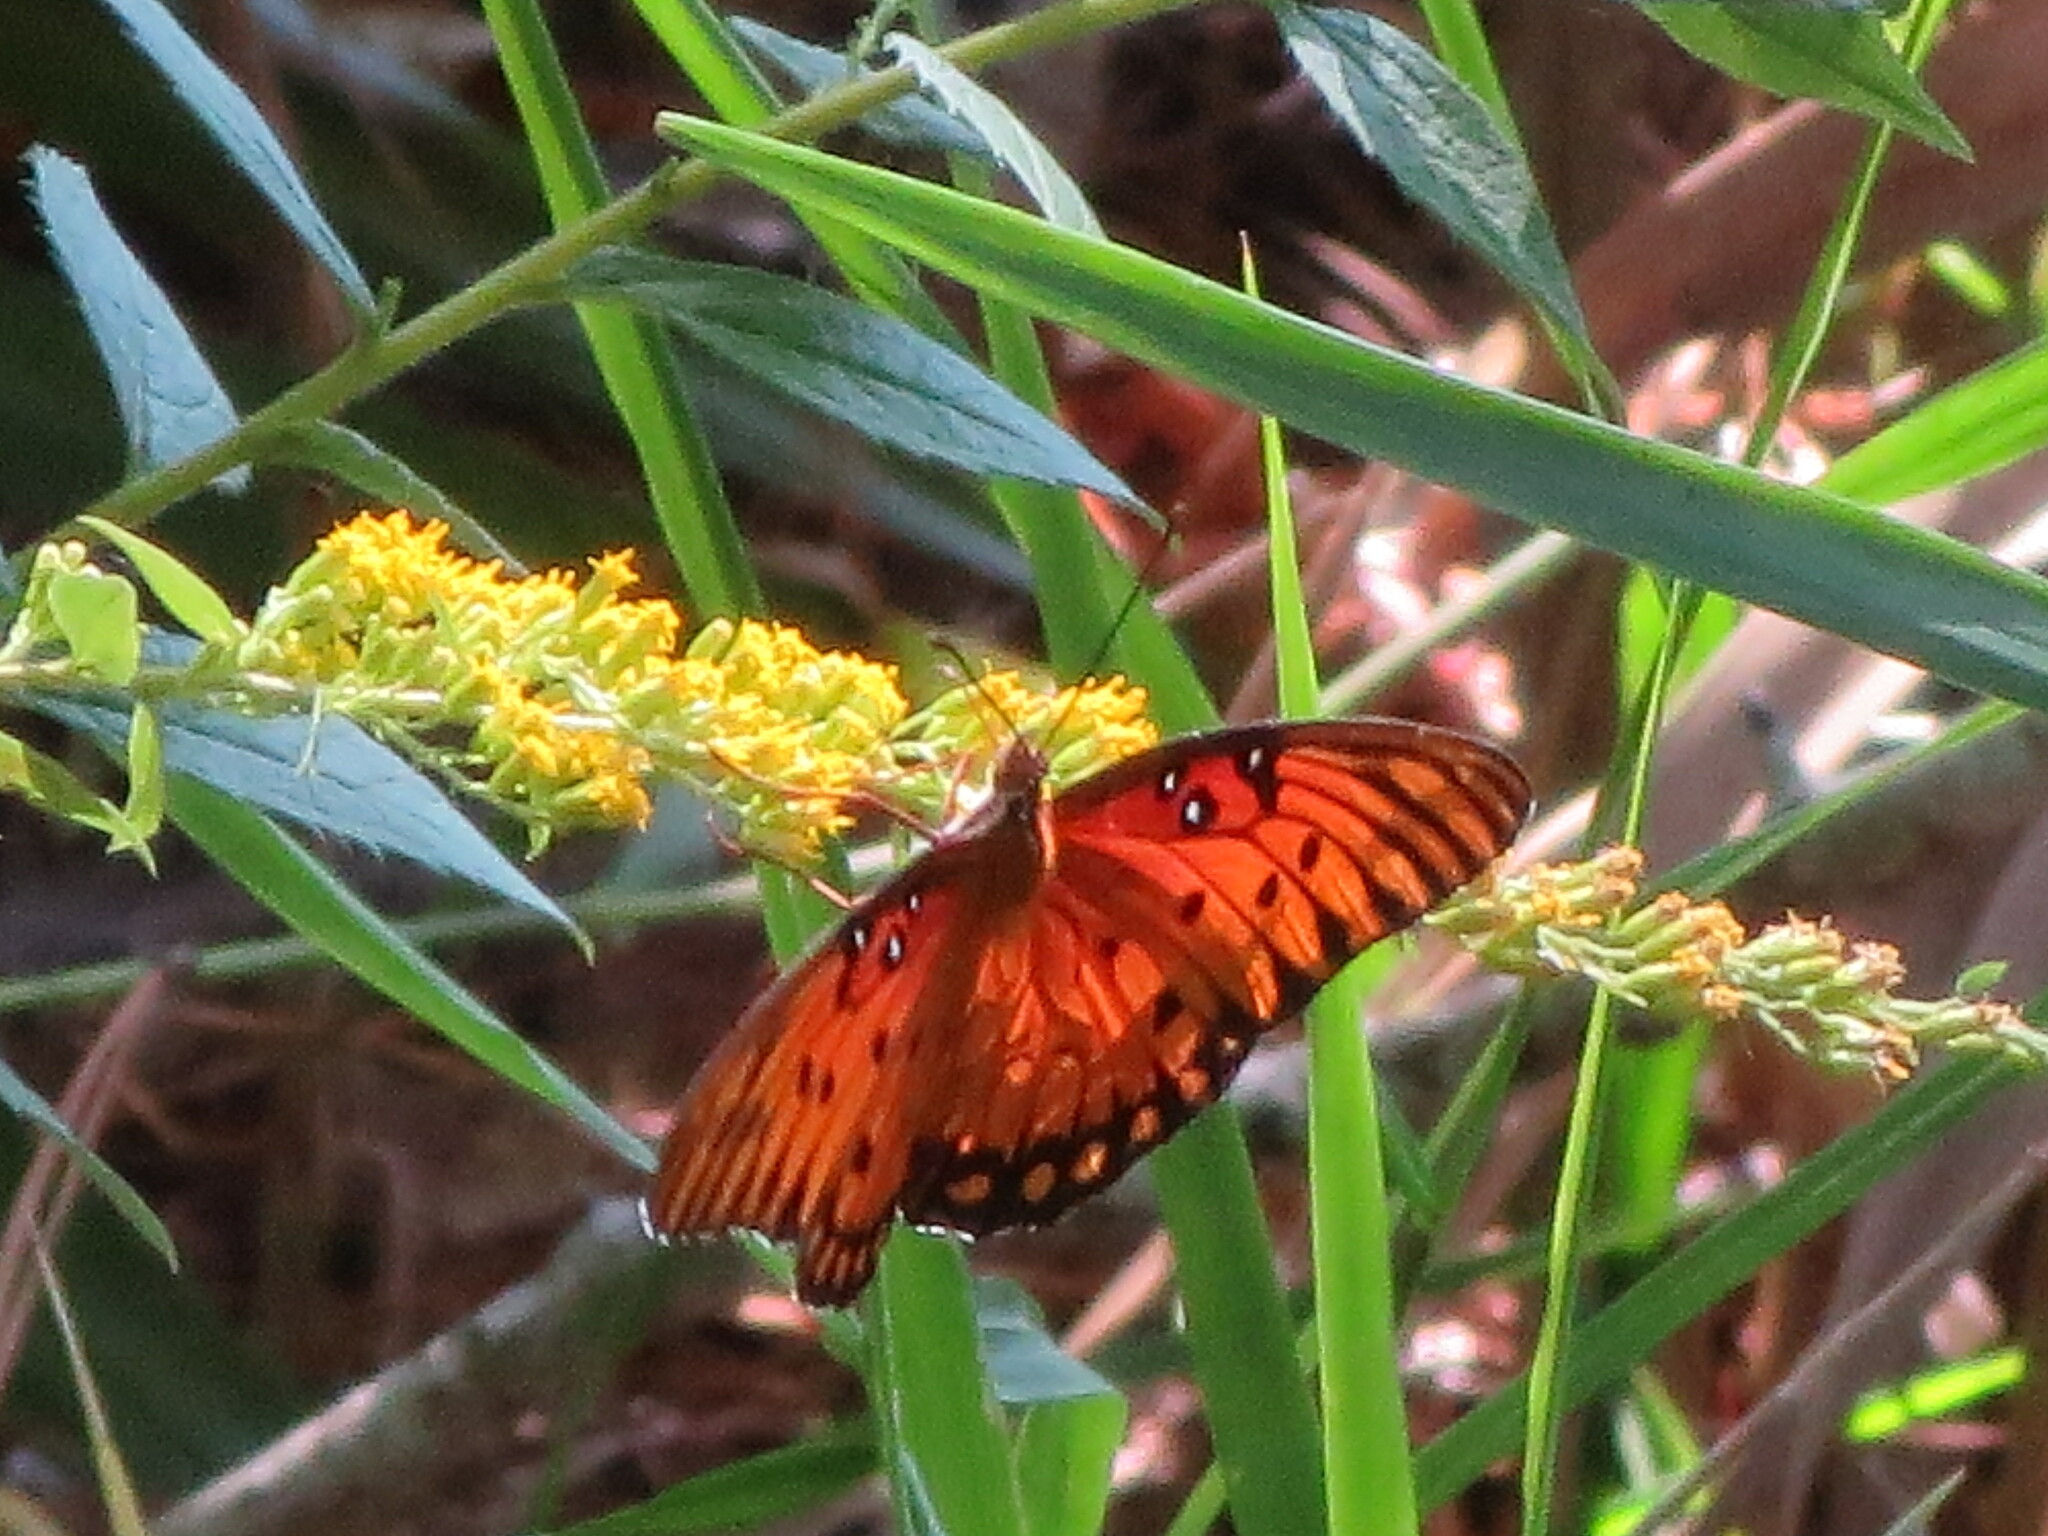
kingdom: Animalia
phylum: Arthropoda
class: Insecta
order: Lepidoptera
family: Nymphalidae
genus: Dione
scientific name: Dione vanillae
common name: Gulf fritillary
